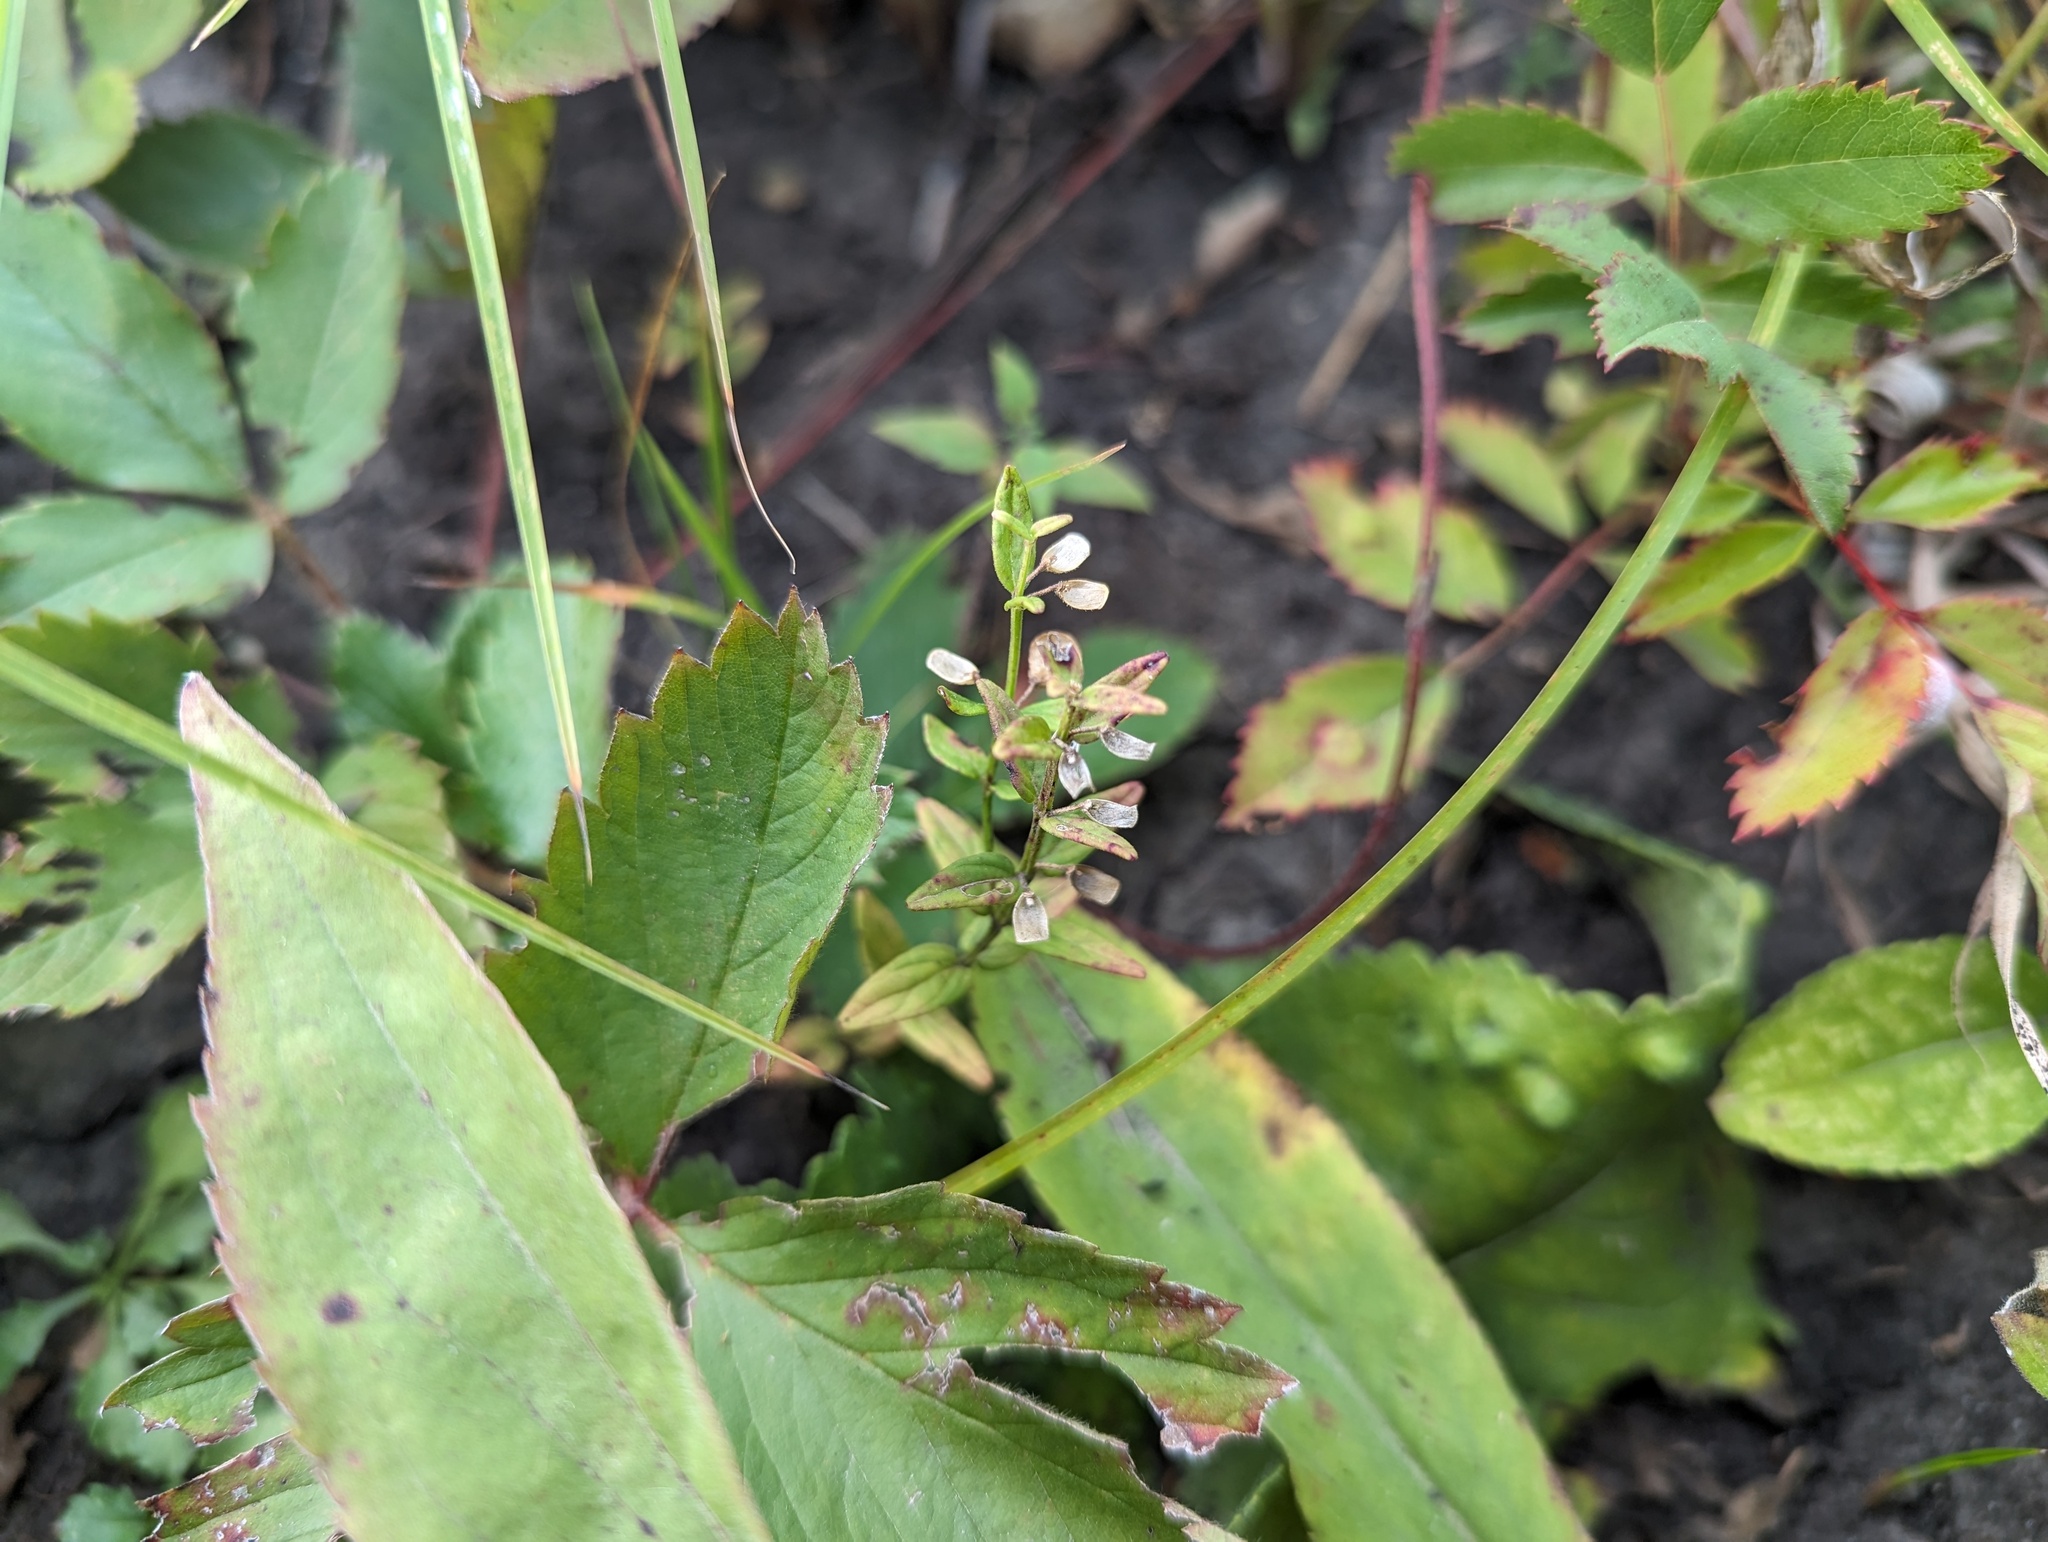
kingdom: Plantae
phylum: Tracheophyta
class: Magnoliopsida
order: Lamiales
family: Lamiaceae
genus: Scutellaria
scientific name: Scutellaria parvula
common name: Little scullcap
